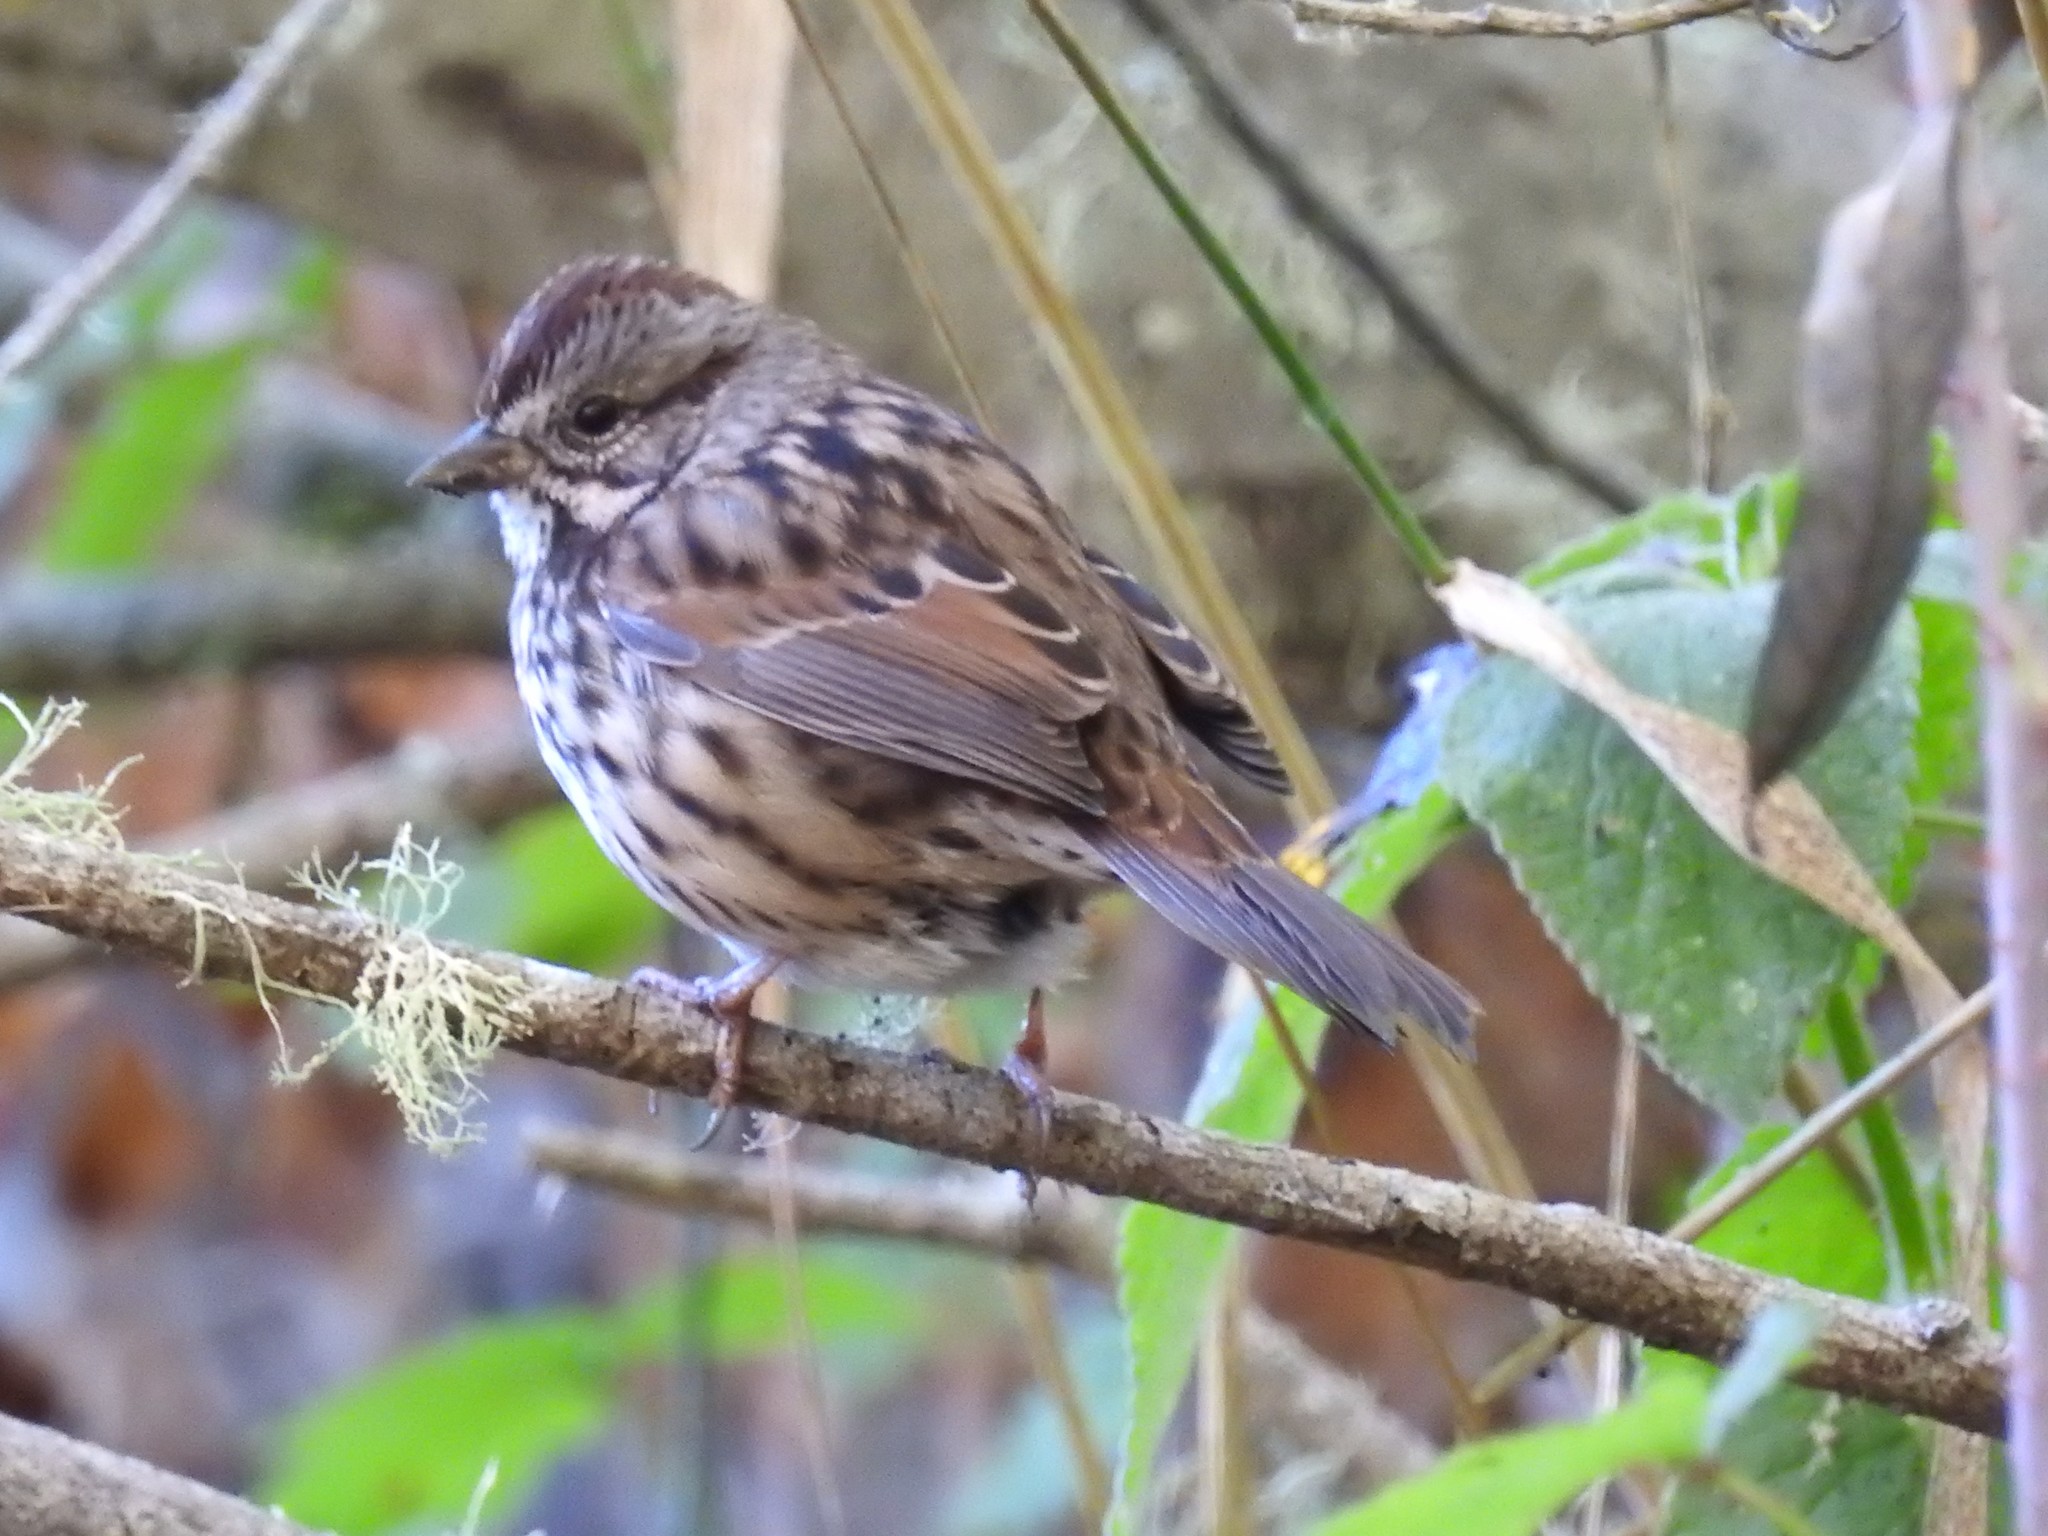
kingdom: Animalia
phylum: Chordata
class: Aves
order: Passeriformes
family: Passerellidae
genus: Melospiza
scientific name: Melospiza melodia
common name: Song sparrow
